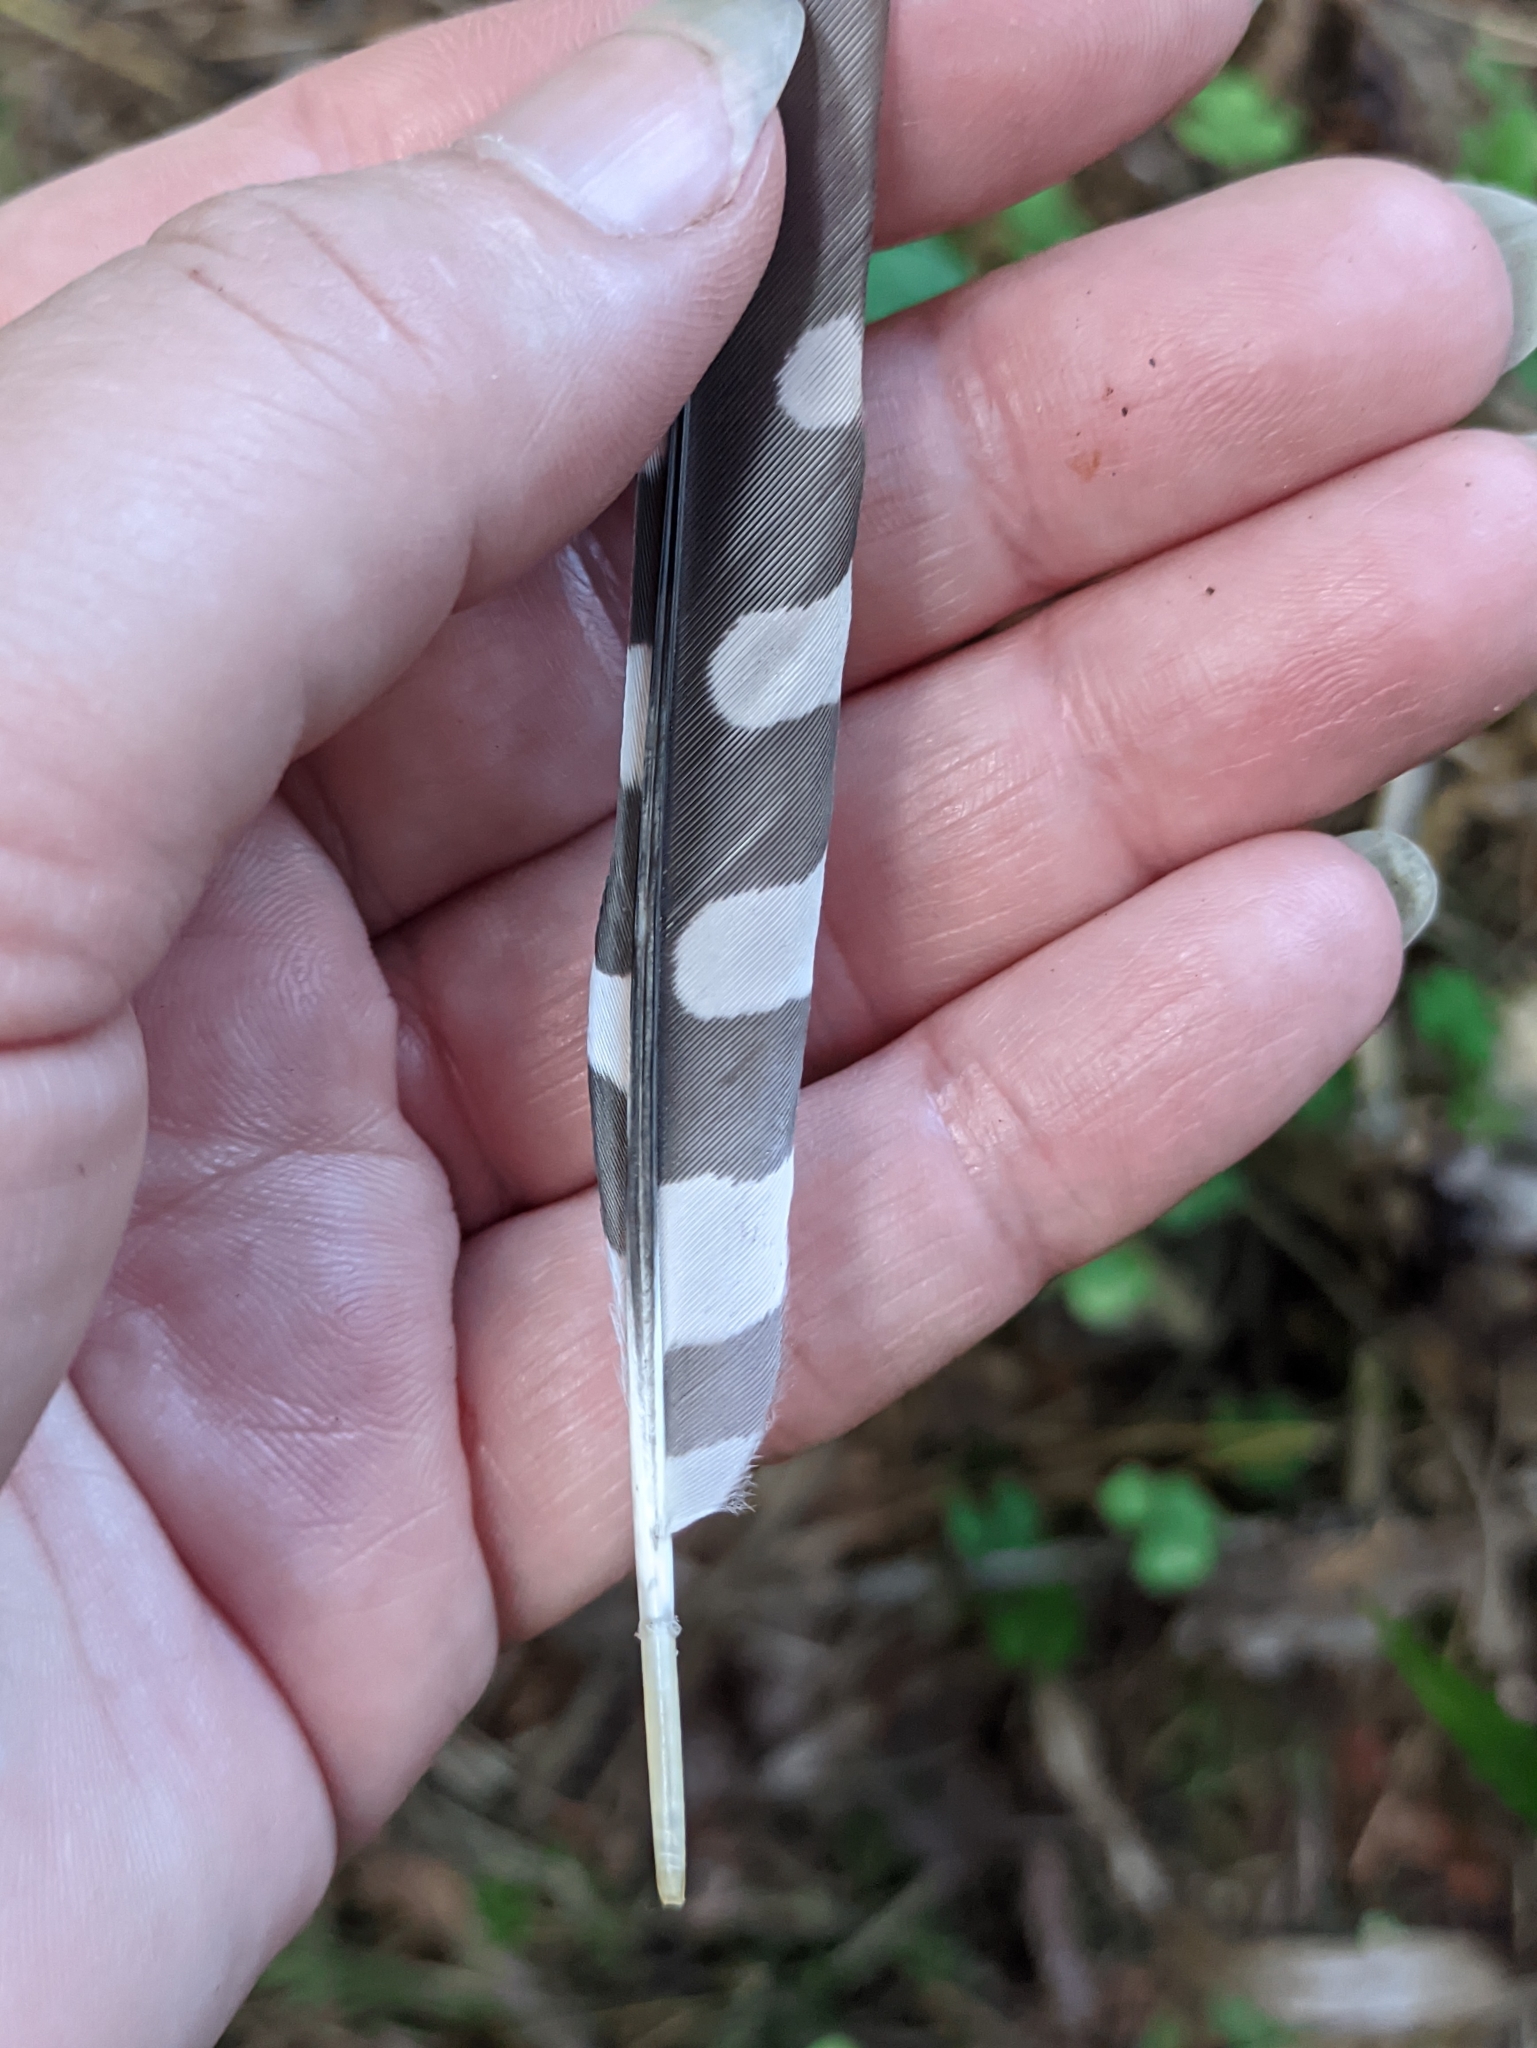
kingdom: Animalia
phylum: Chordata
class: Aves
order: Piciformes
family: Picidae
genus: Dendrocopos
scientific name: Dendrocopos major
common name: Great spotted woodpecker
